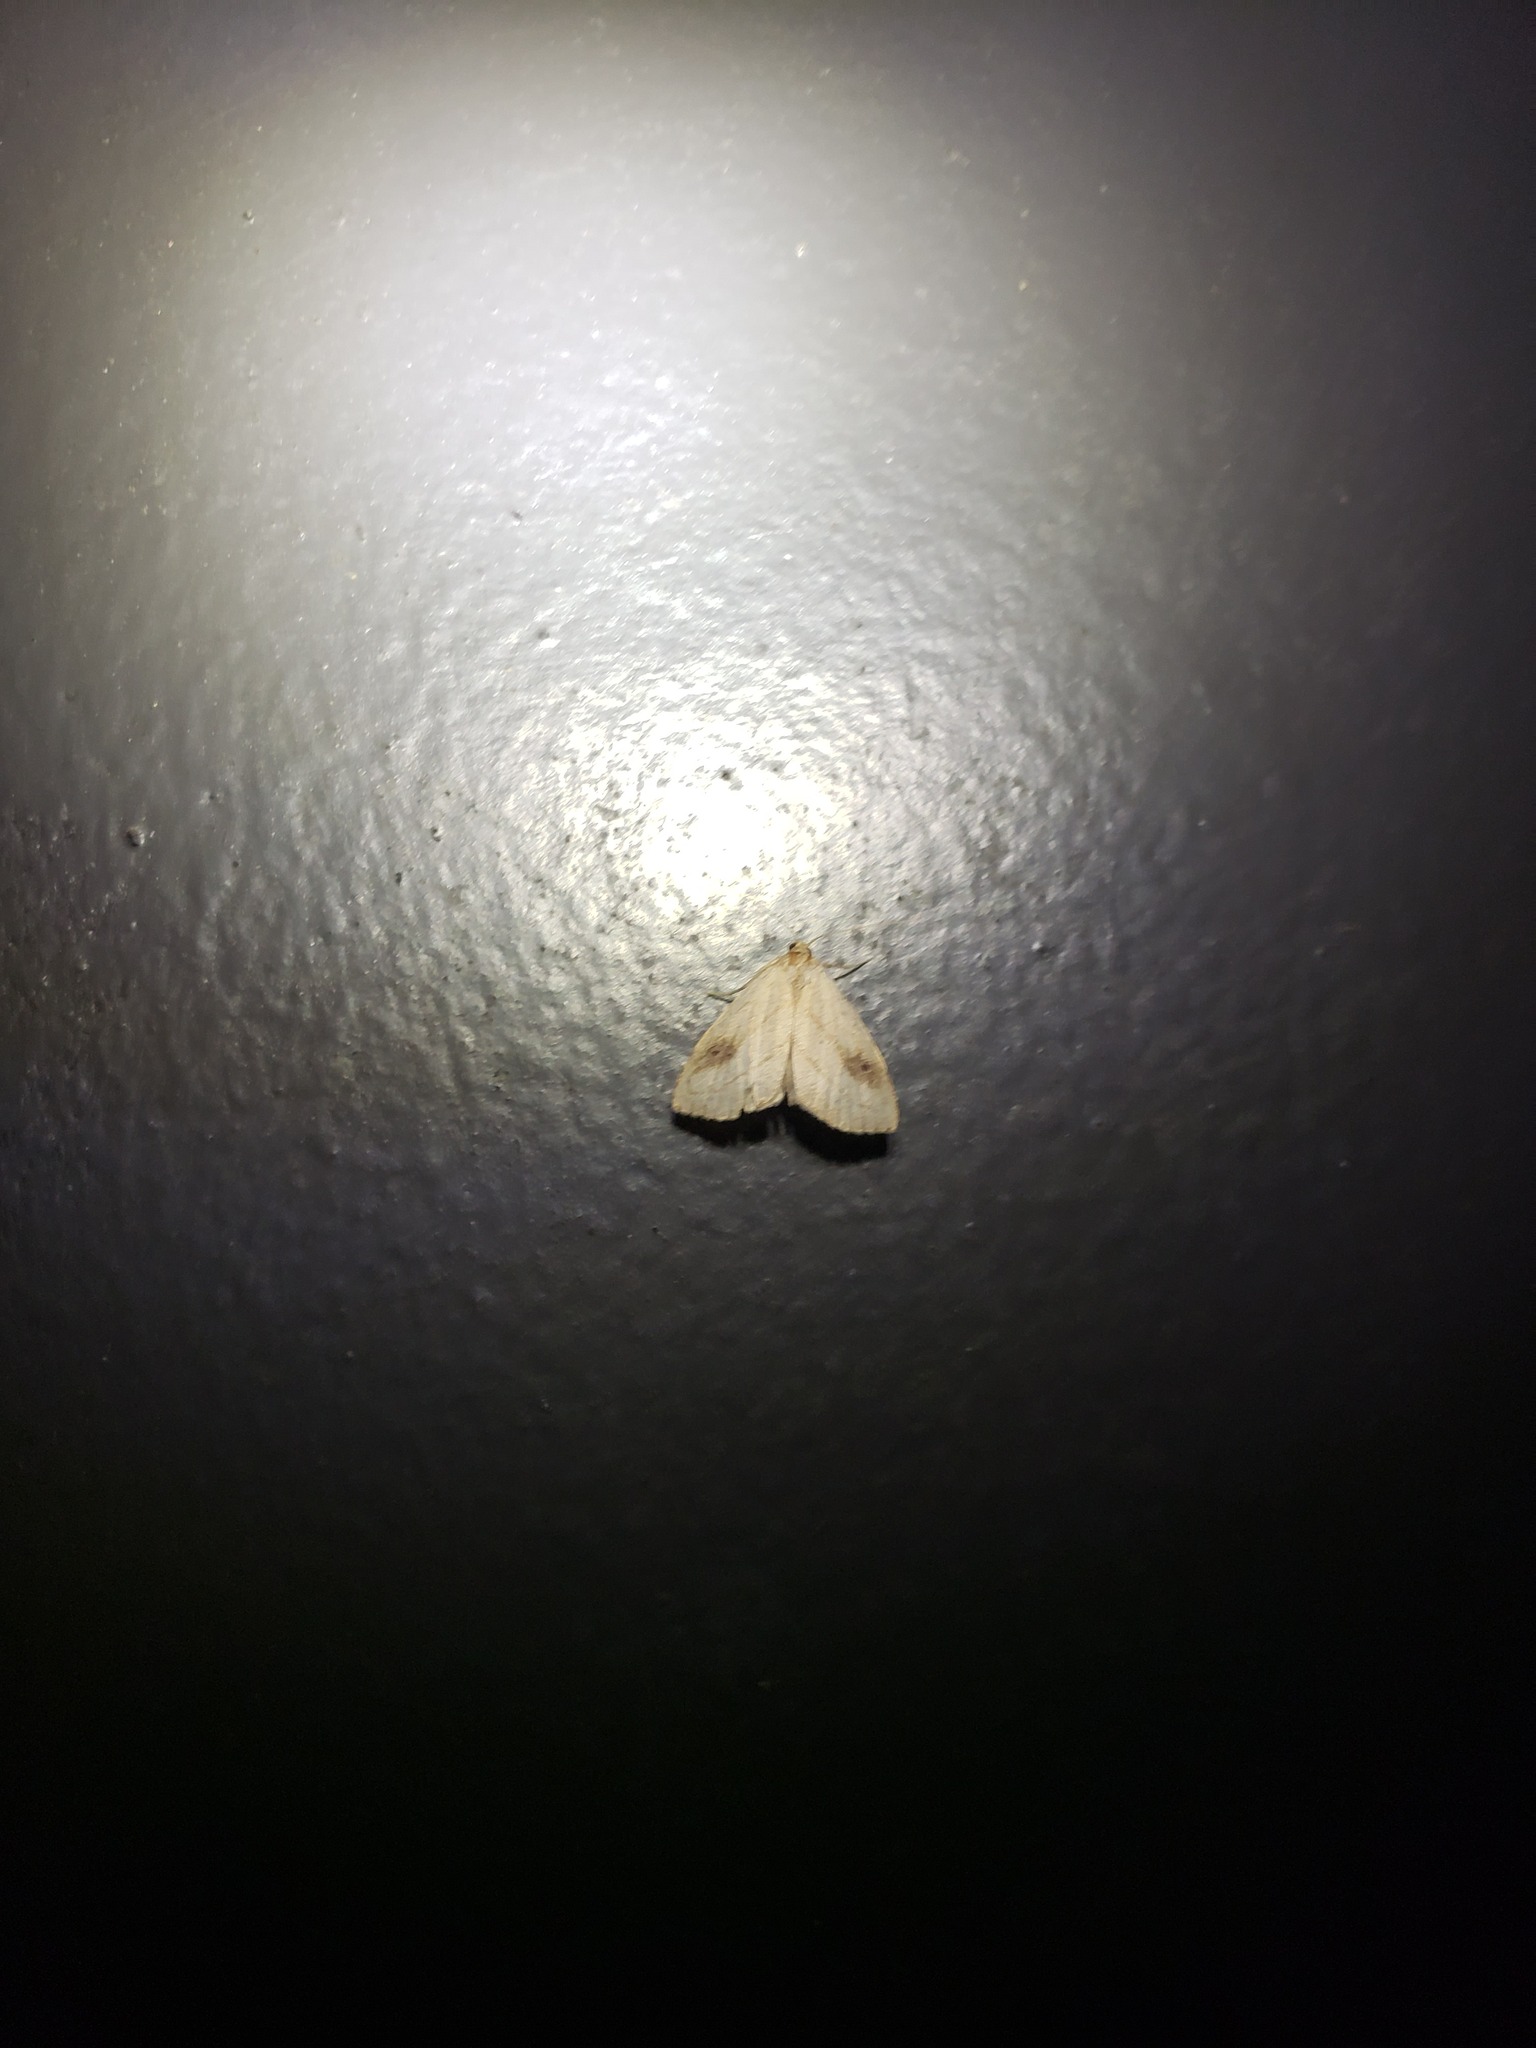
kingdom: Animalia
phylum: Arthropoda
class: Insecta
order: Lepidoptera
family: Erebidae
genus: Rivula
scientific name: Rivula propinqualis
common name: Spotted grass moth
